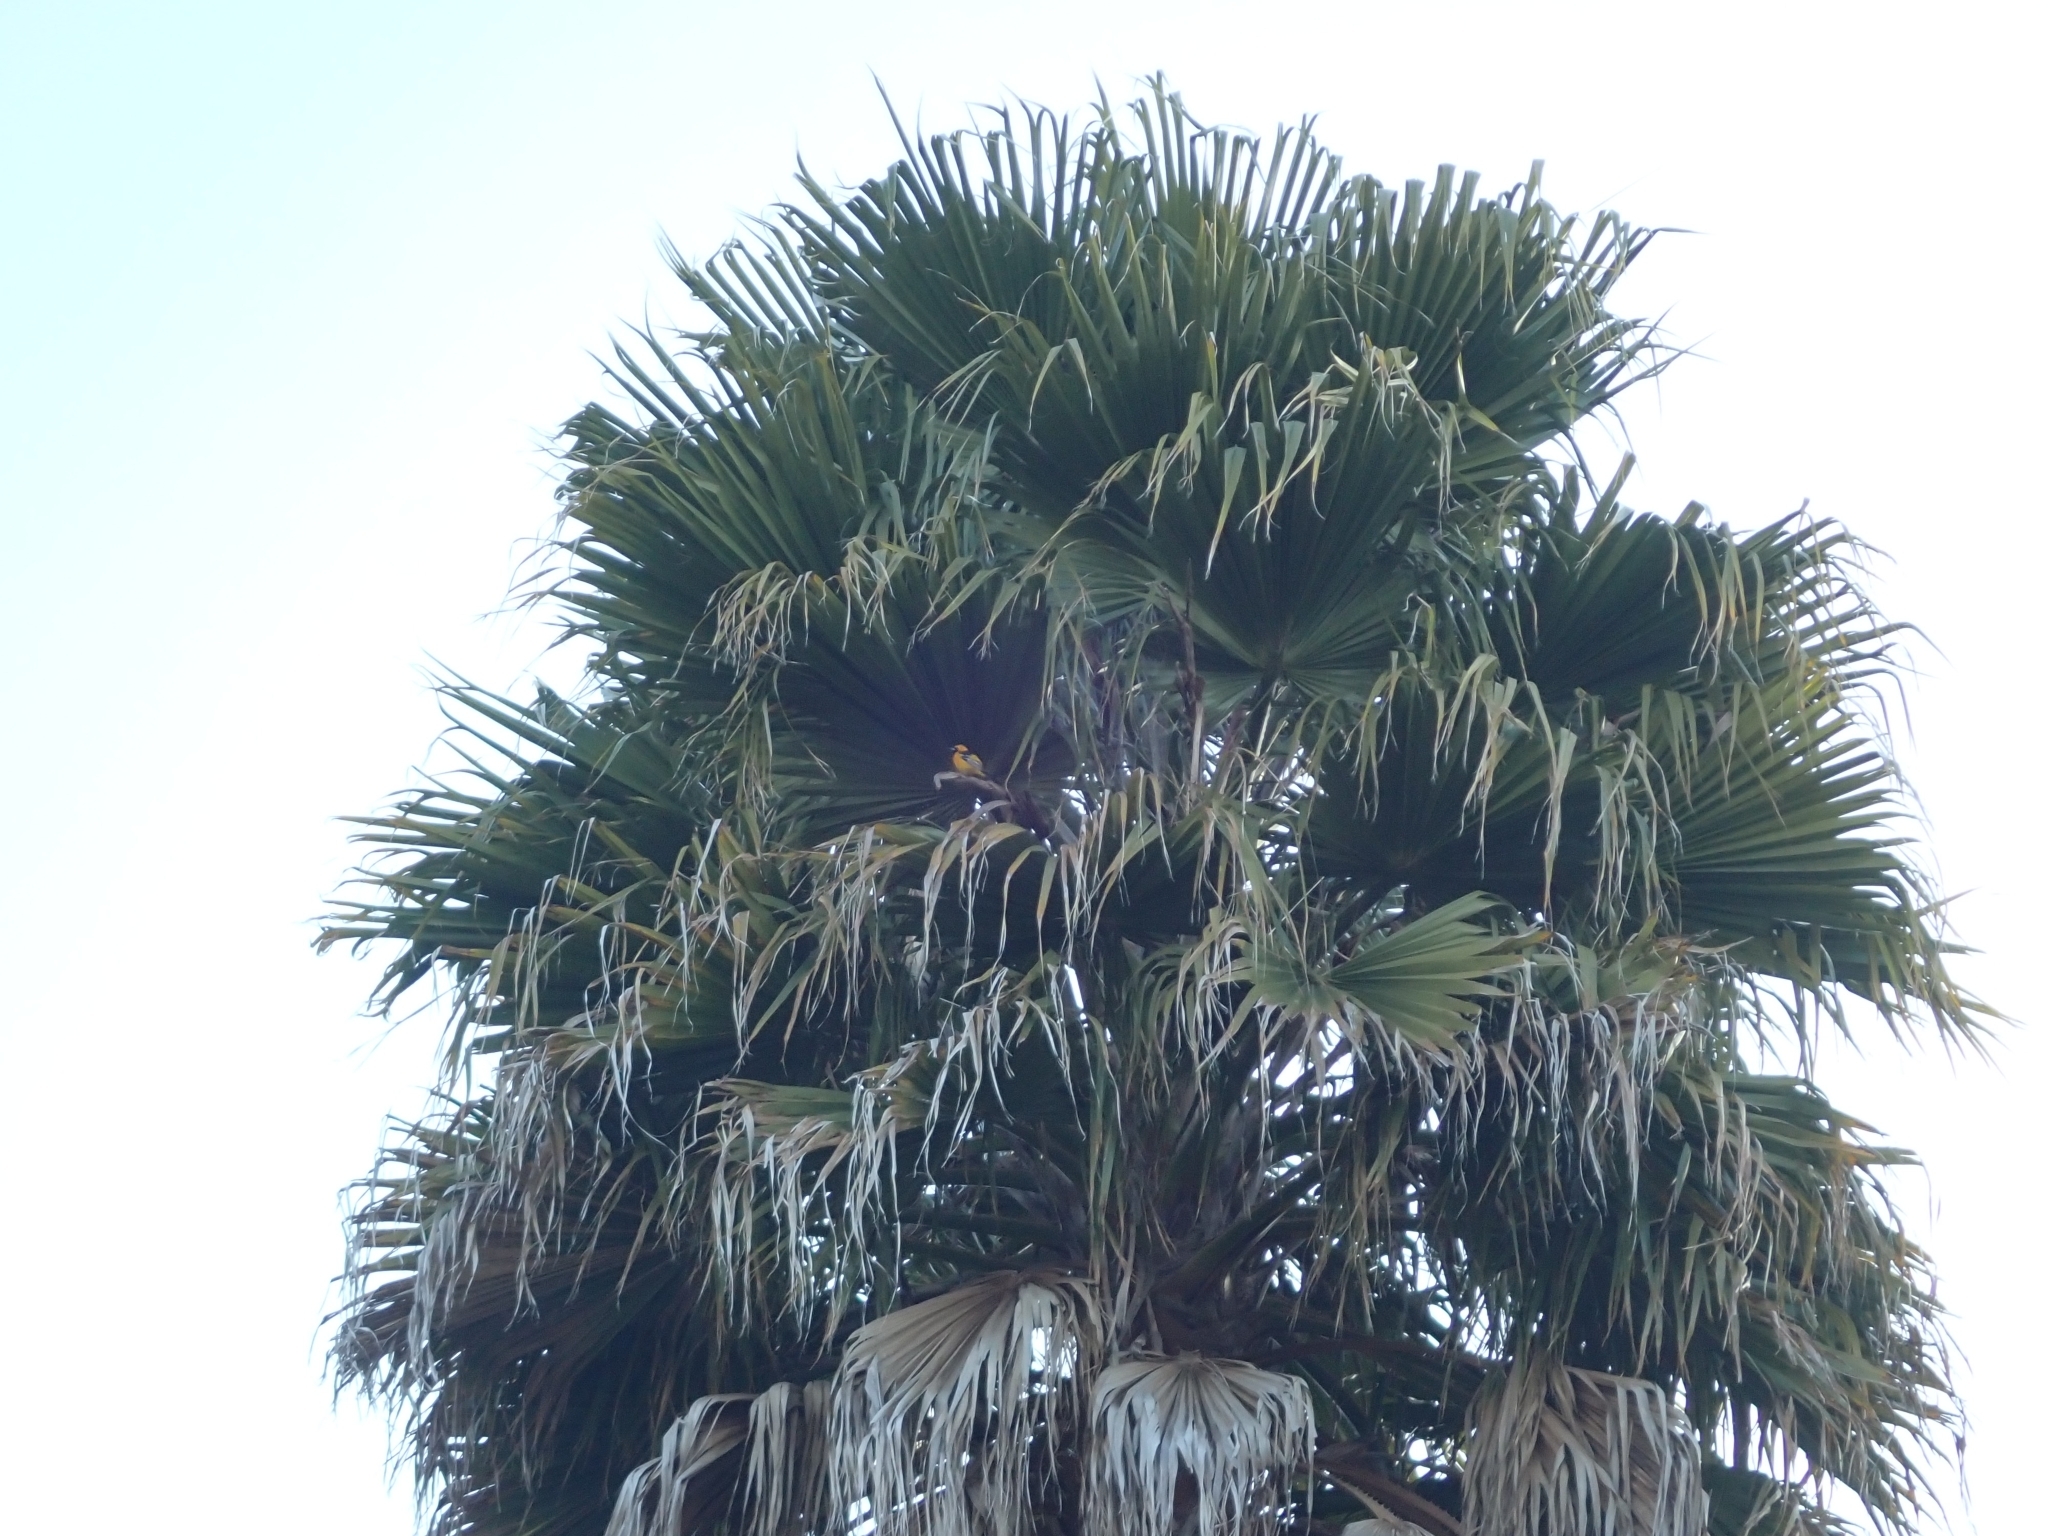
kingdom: Animalia
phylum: Chordata
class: Aves
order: Passeriformes
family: Icteridae
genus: Icterus
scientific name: Icterus cucullatus
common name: Hooded oriole
